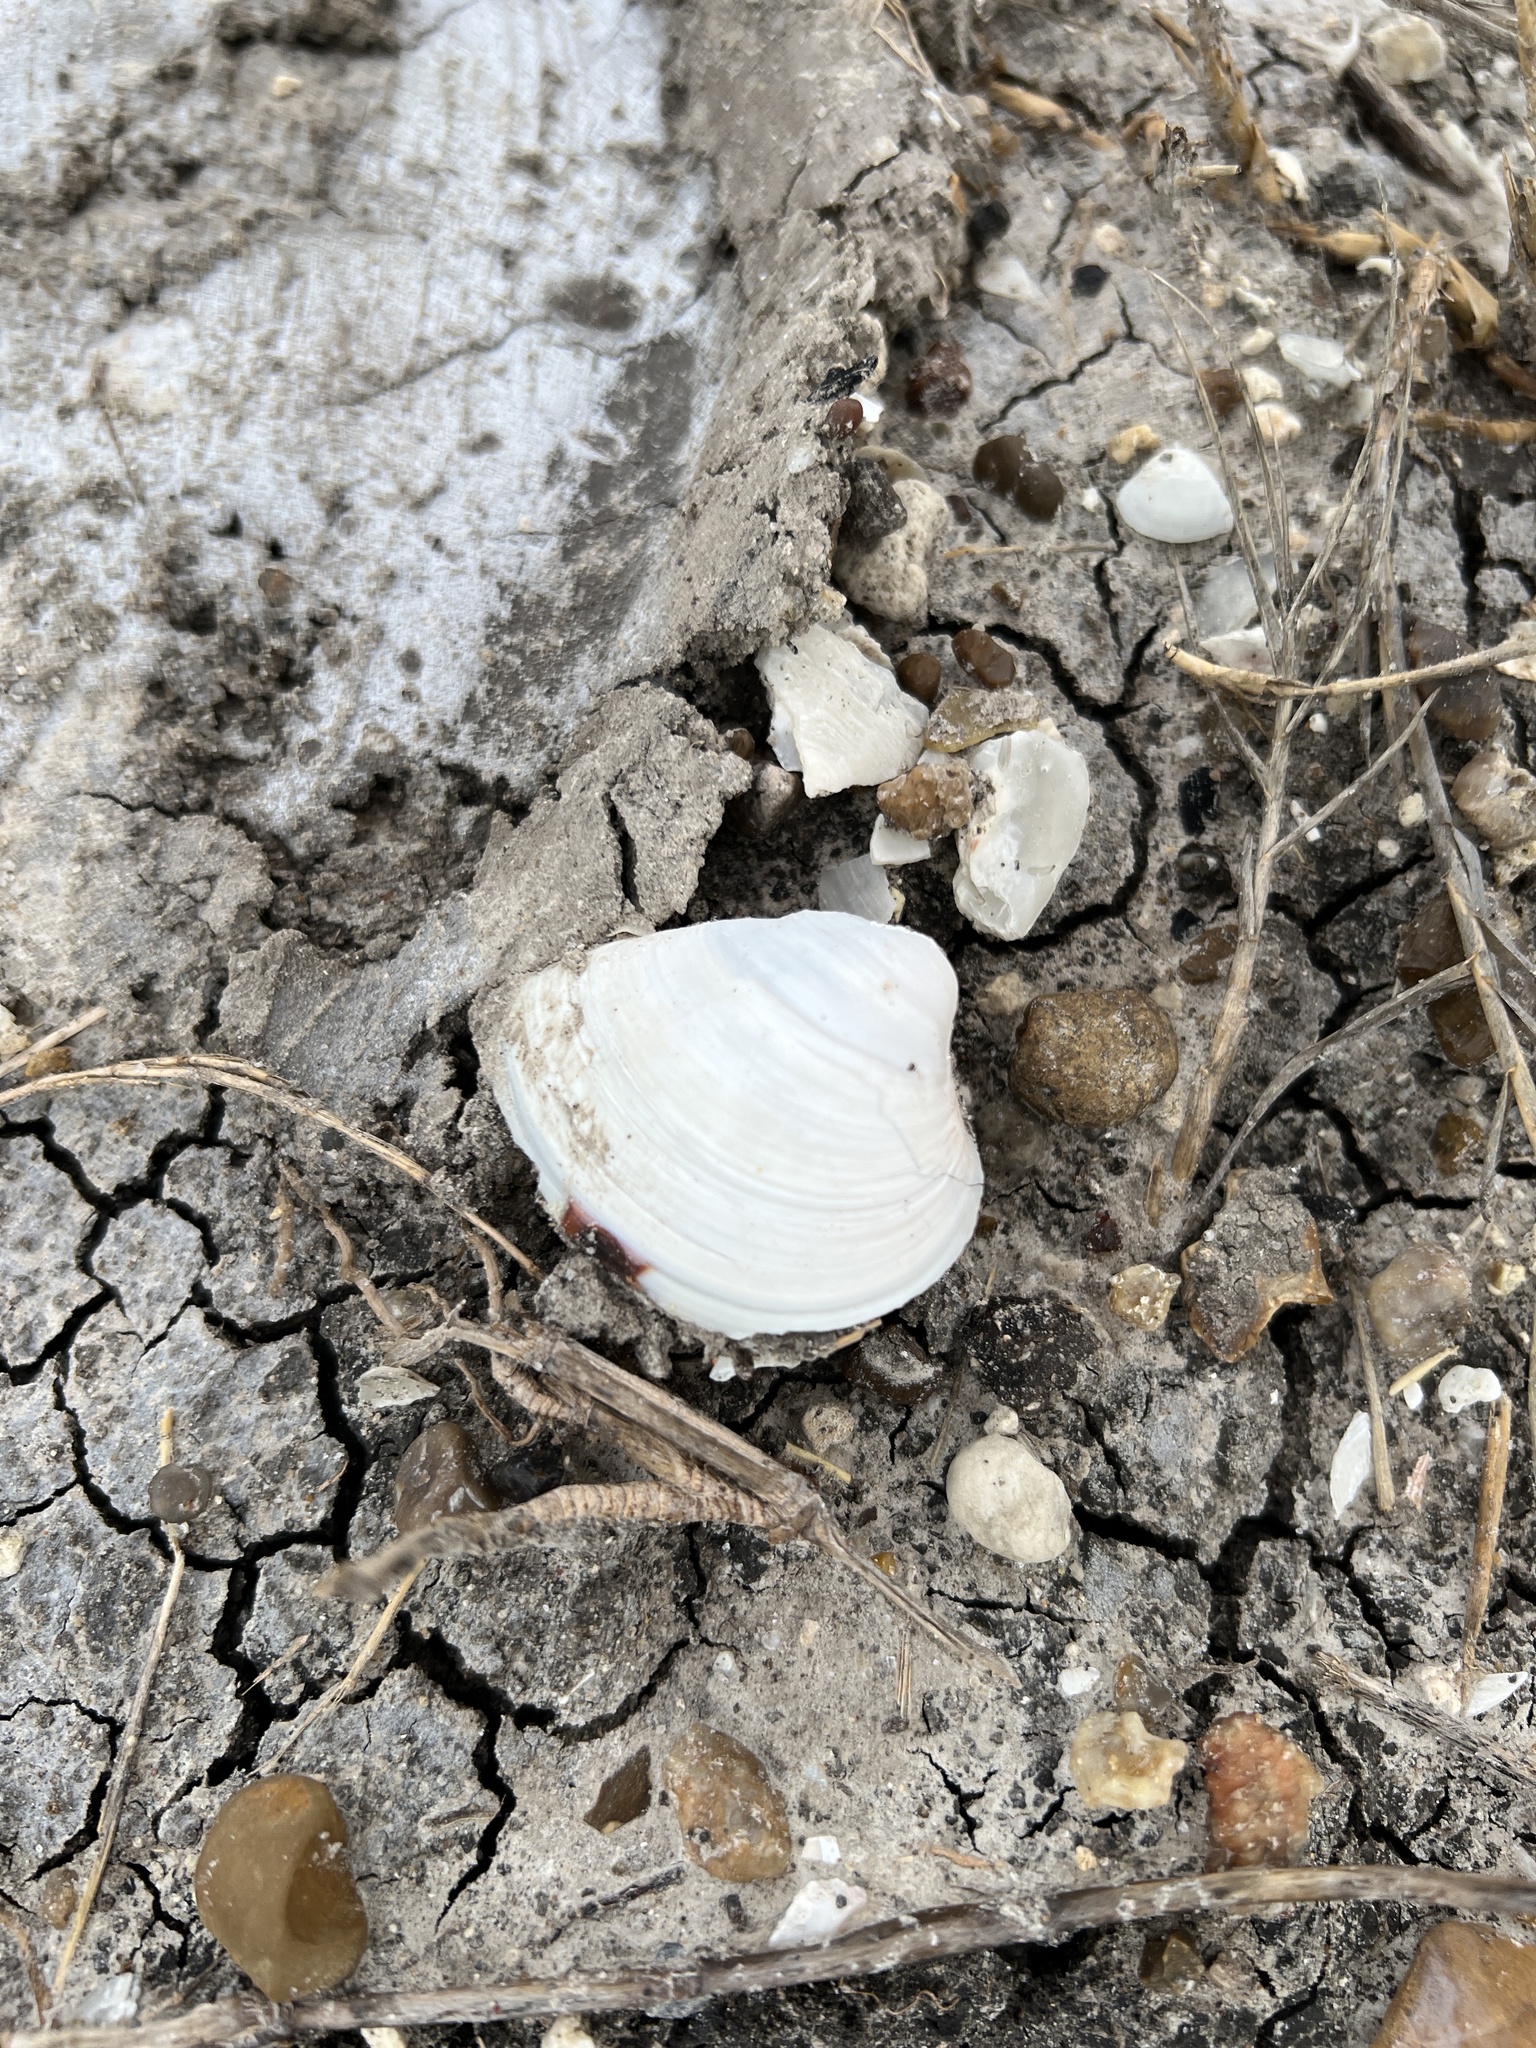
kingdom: Animalia
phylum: Mollusca
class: Bivalvia
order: Venerida
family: Mactridae
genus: Rangia
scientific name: Rangia cuneata
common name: Atlantic rangia
